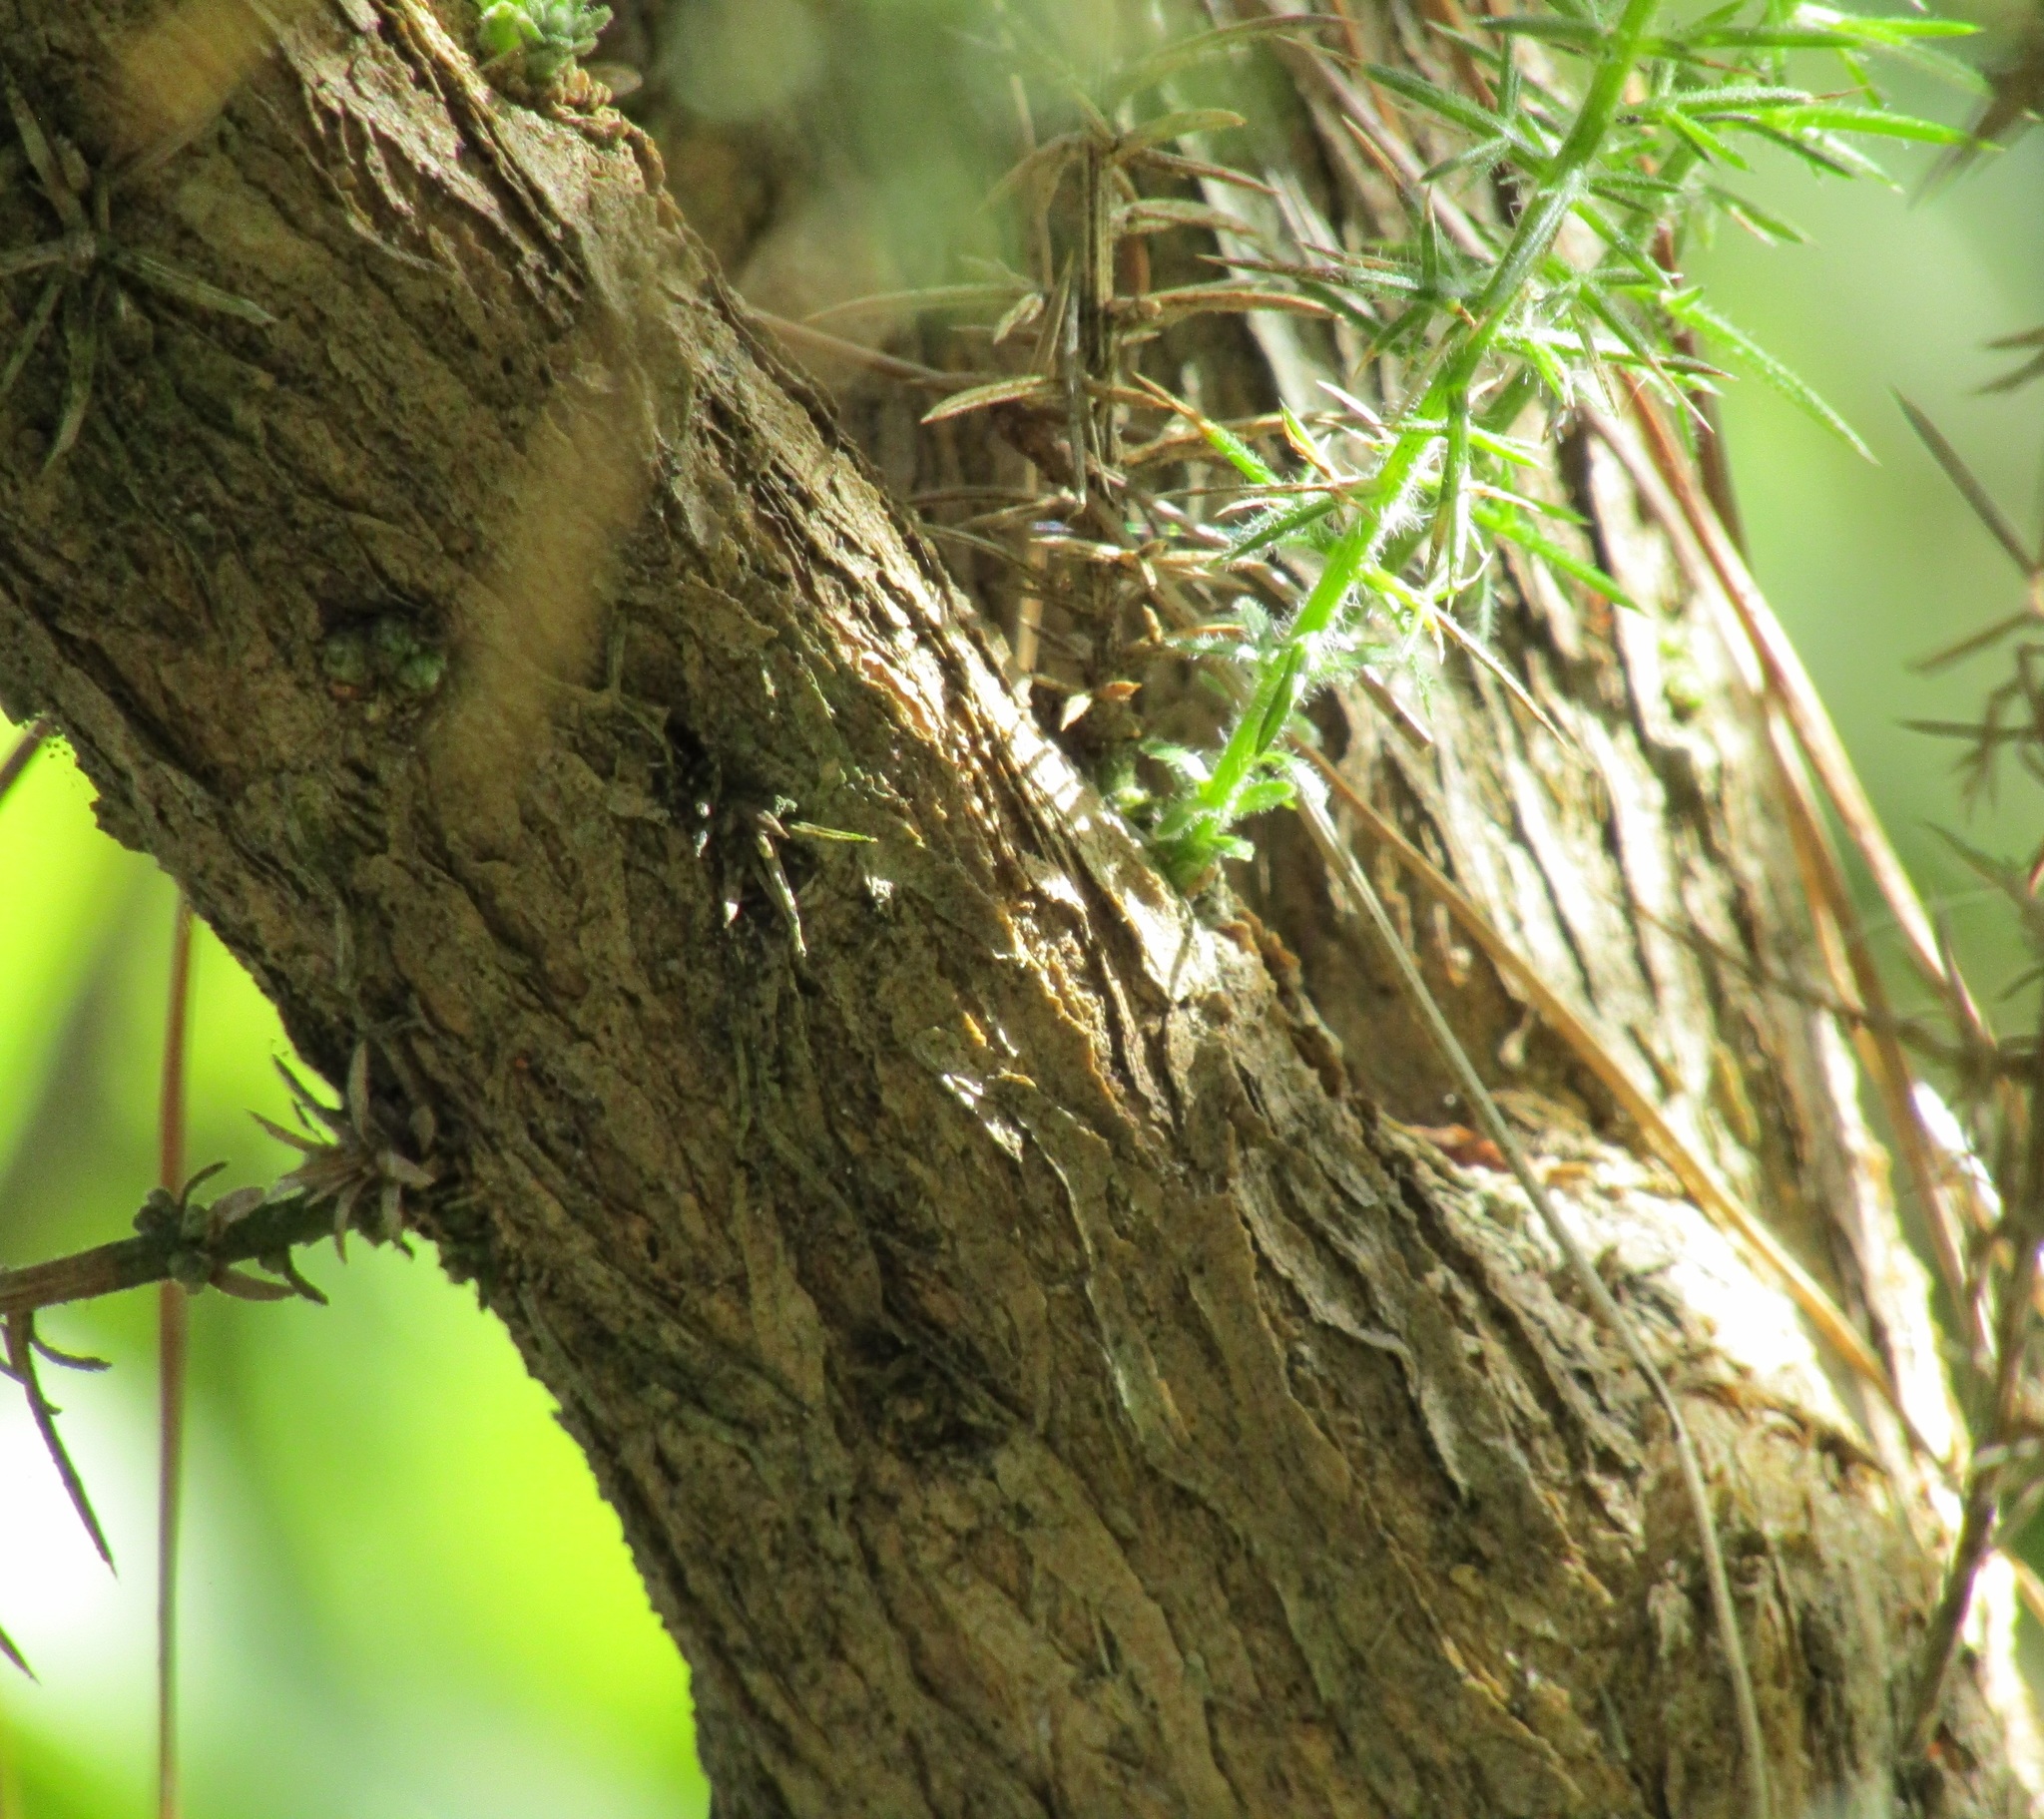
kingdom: Plantae
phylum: Tracheophyta
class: Magnoliopsida
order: Fabales
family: Fabaceae
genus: Ulex
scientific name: Ulex europaeus
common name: Common gorse
